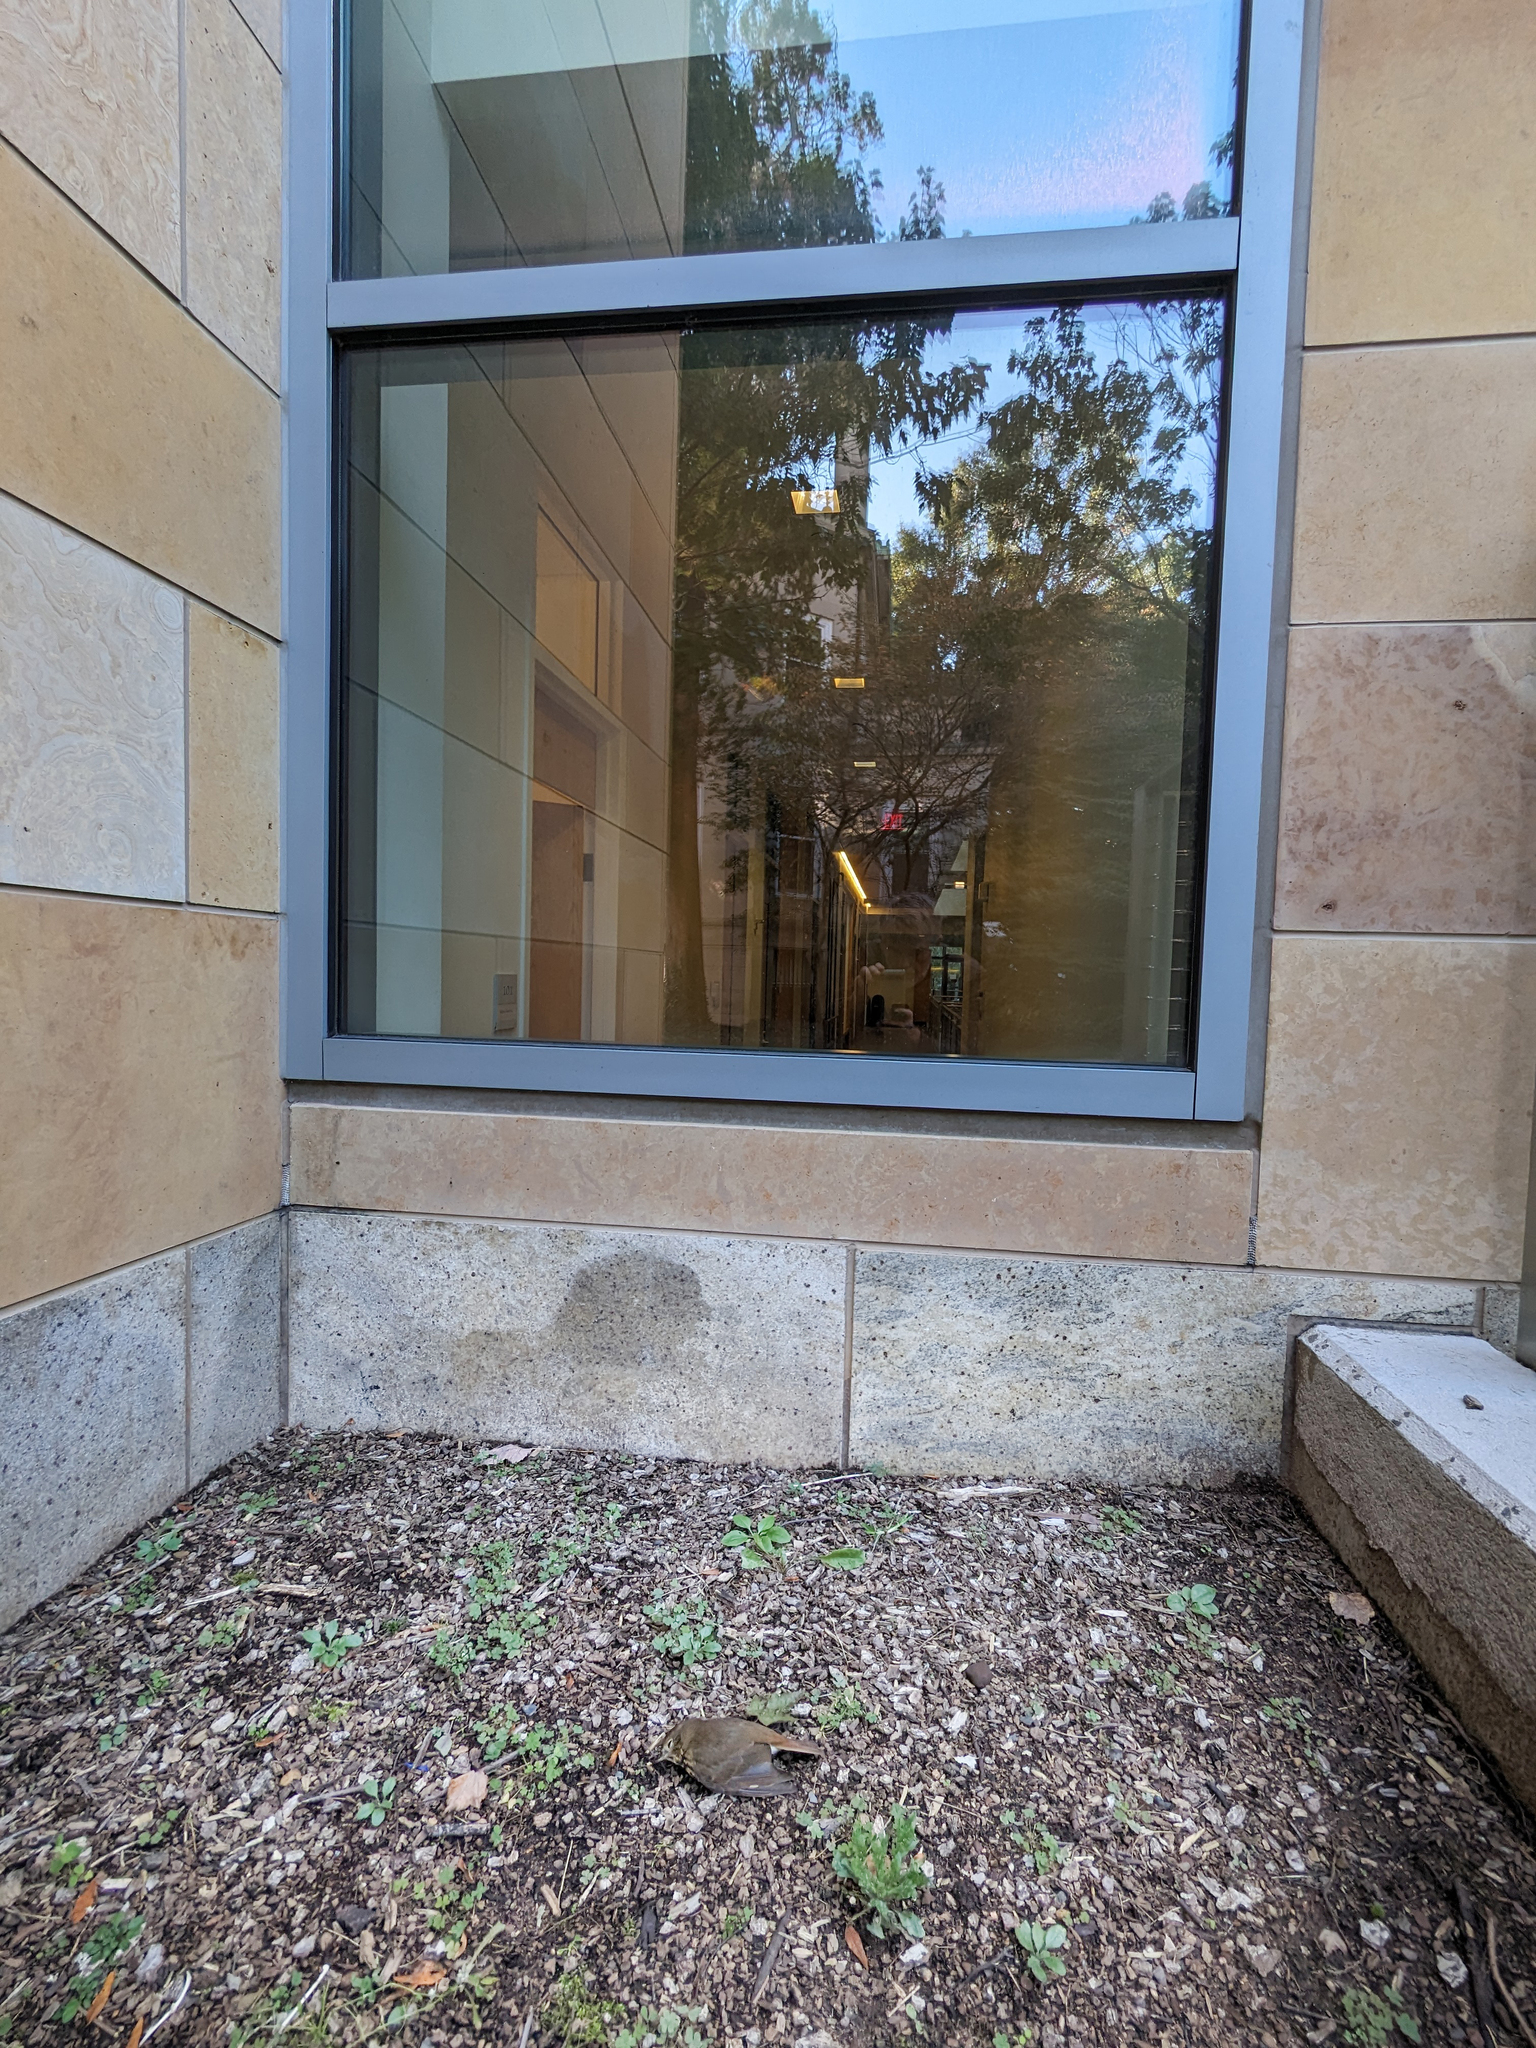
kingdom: Animalia
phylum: Chordata
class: Aves
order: Passeriformes
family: Turdidae
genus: Catharus
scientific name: Catharus guttatus
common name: Hermit thrush
